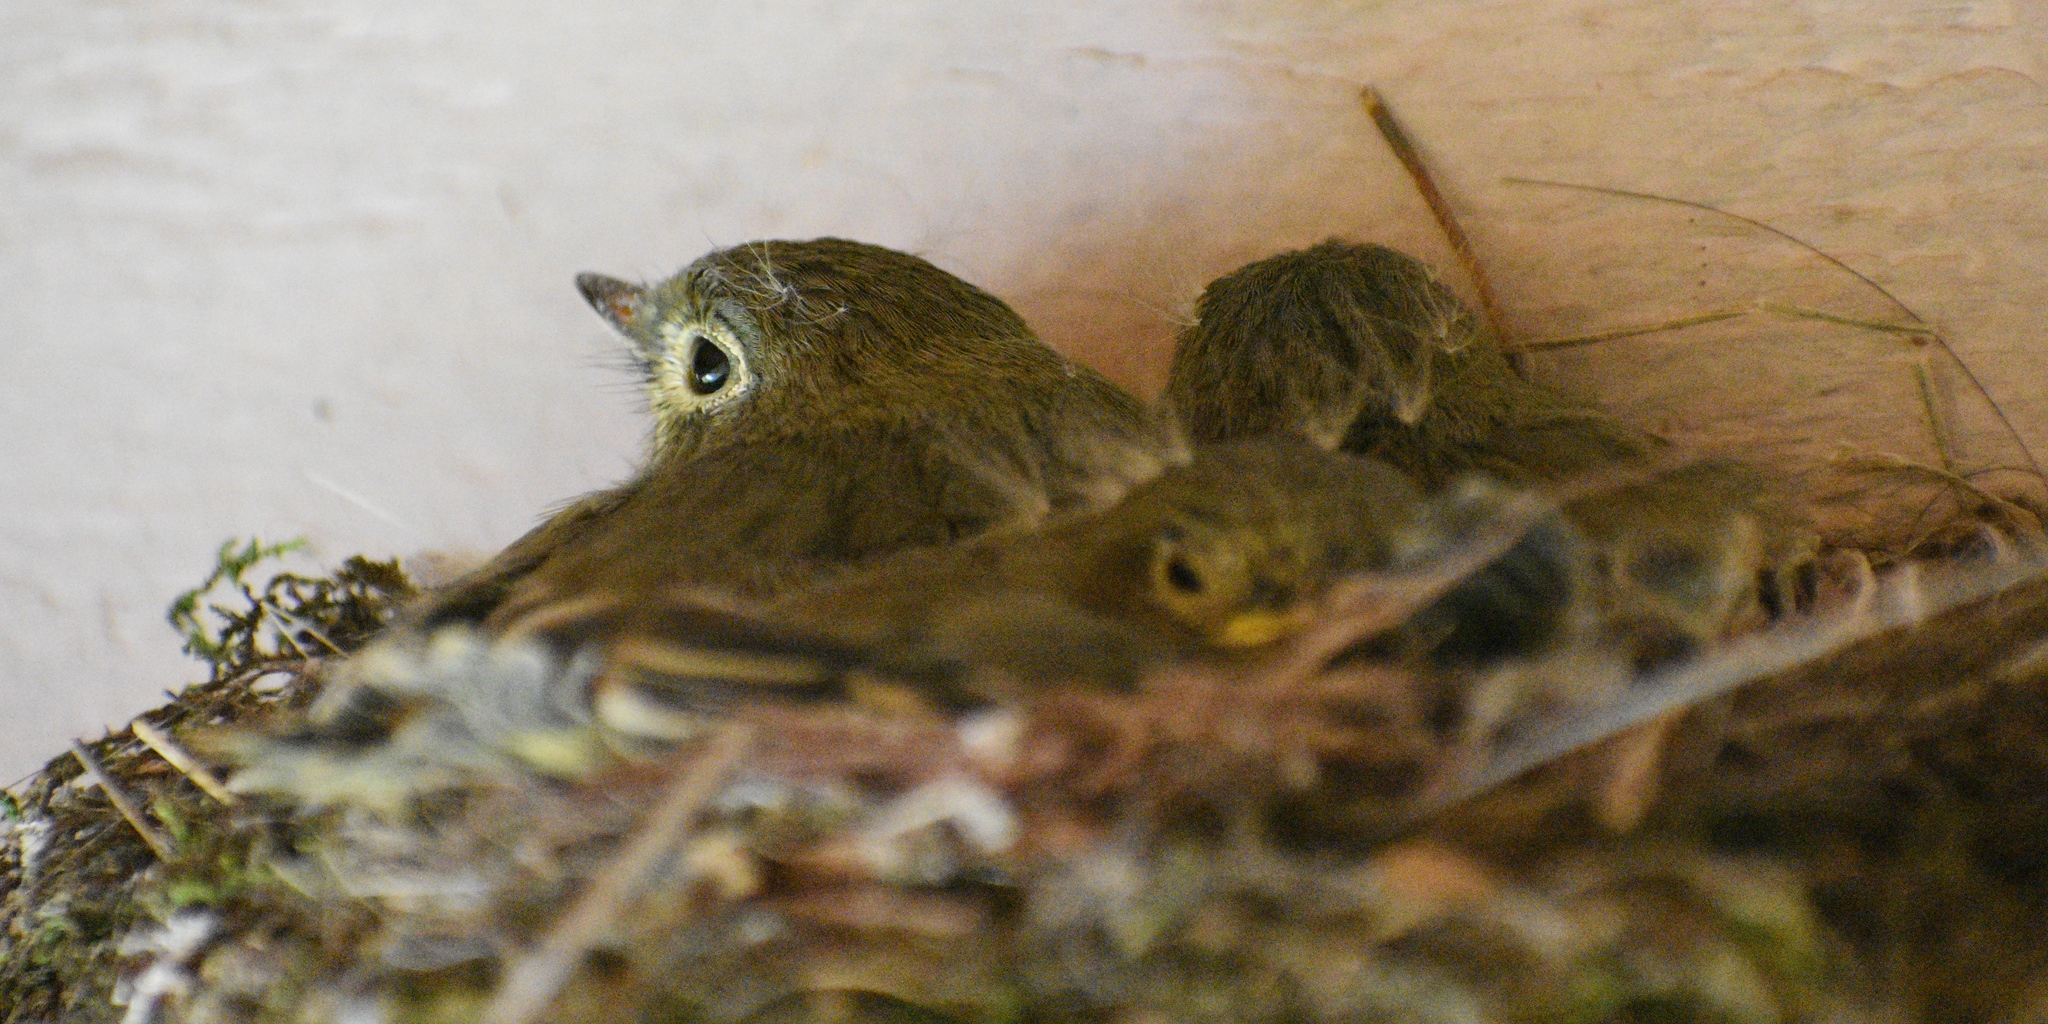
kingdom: Animalia
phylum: Chordata
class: Aves
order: Passeriformes
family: Tyrannidae
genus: Empidonax
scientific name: Empidonax difficilis
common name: Pacific-slope flycatcher
